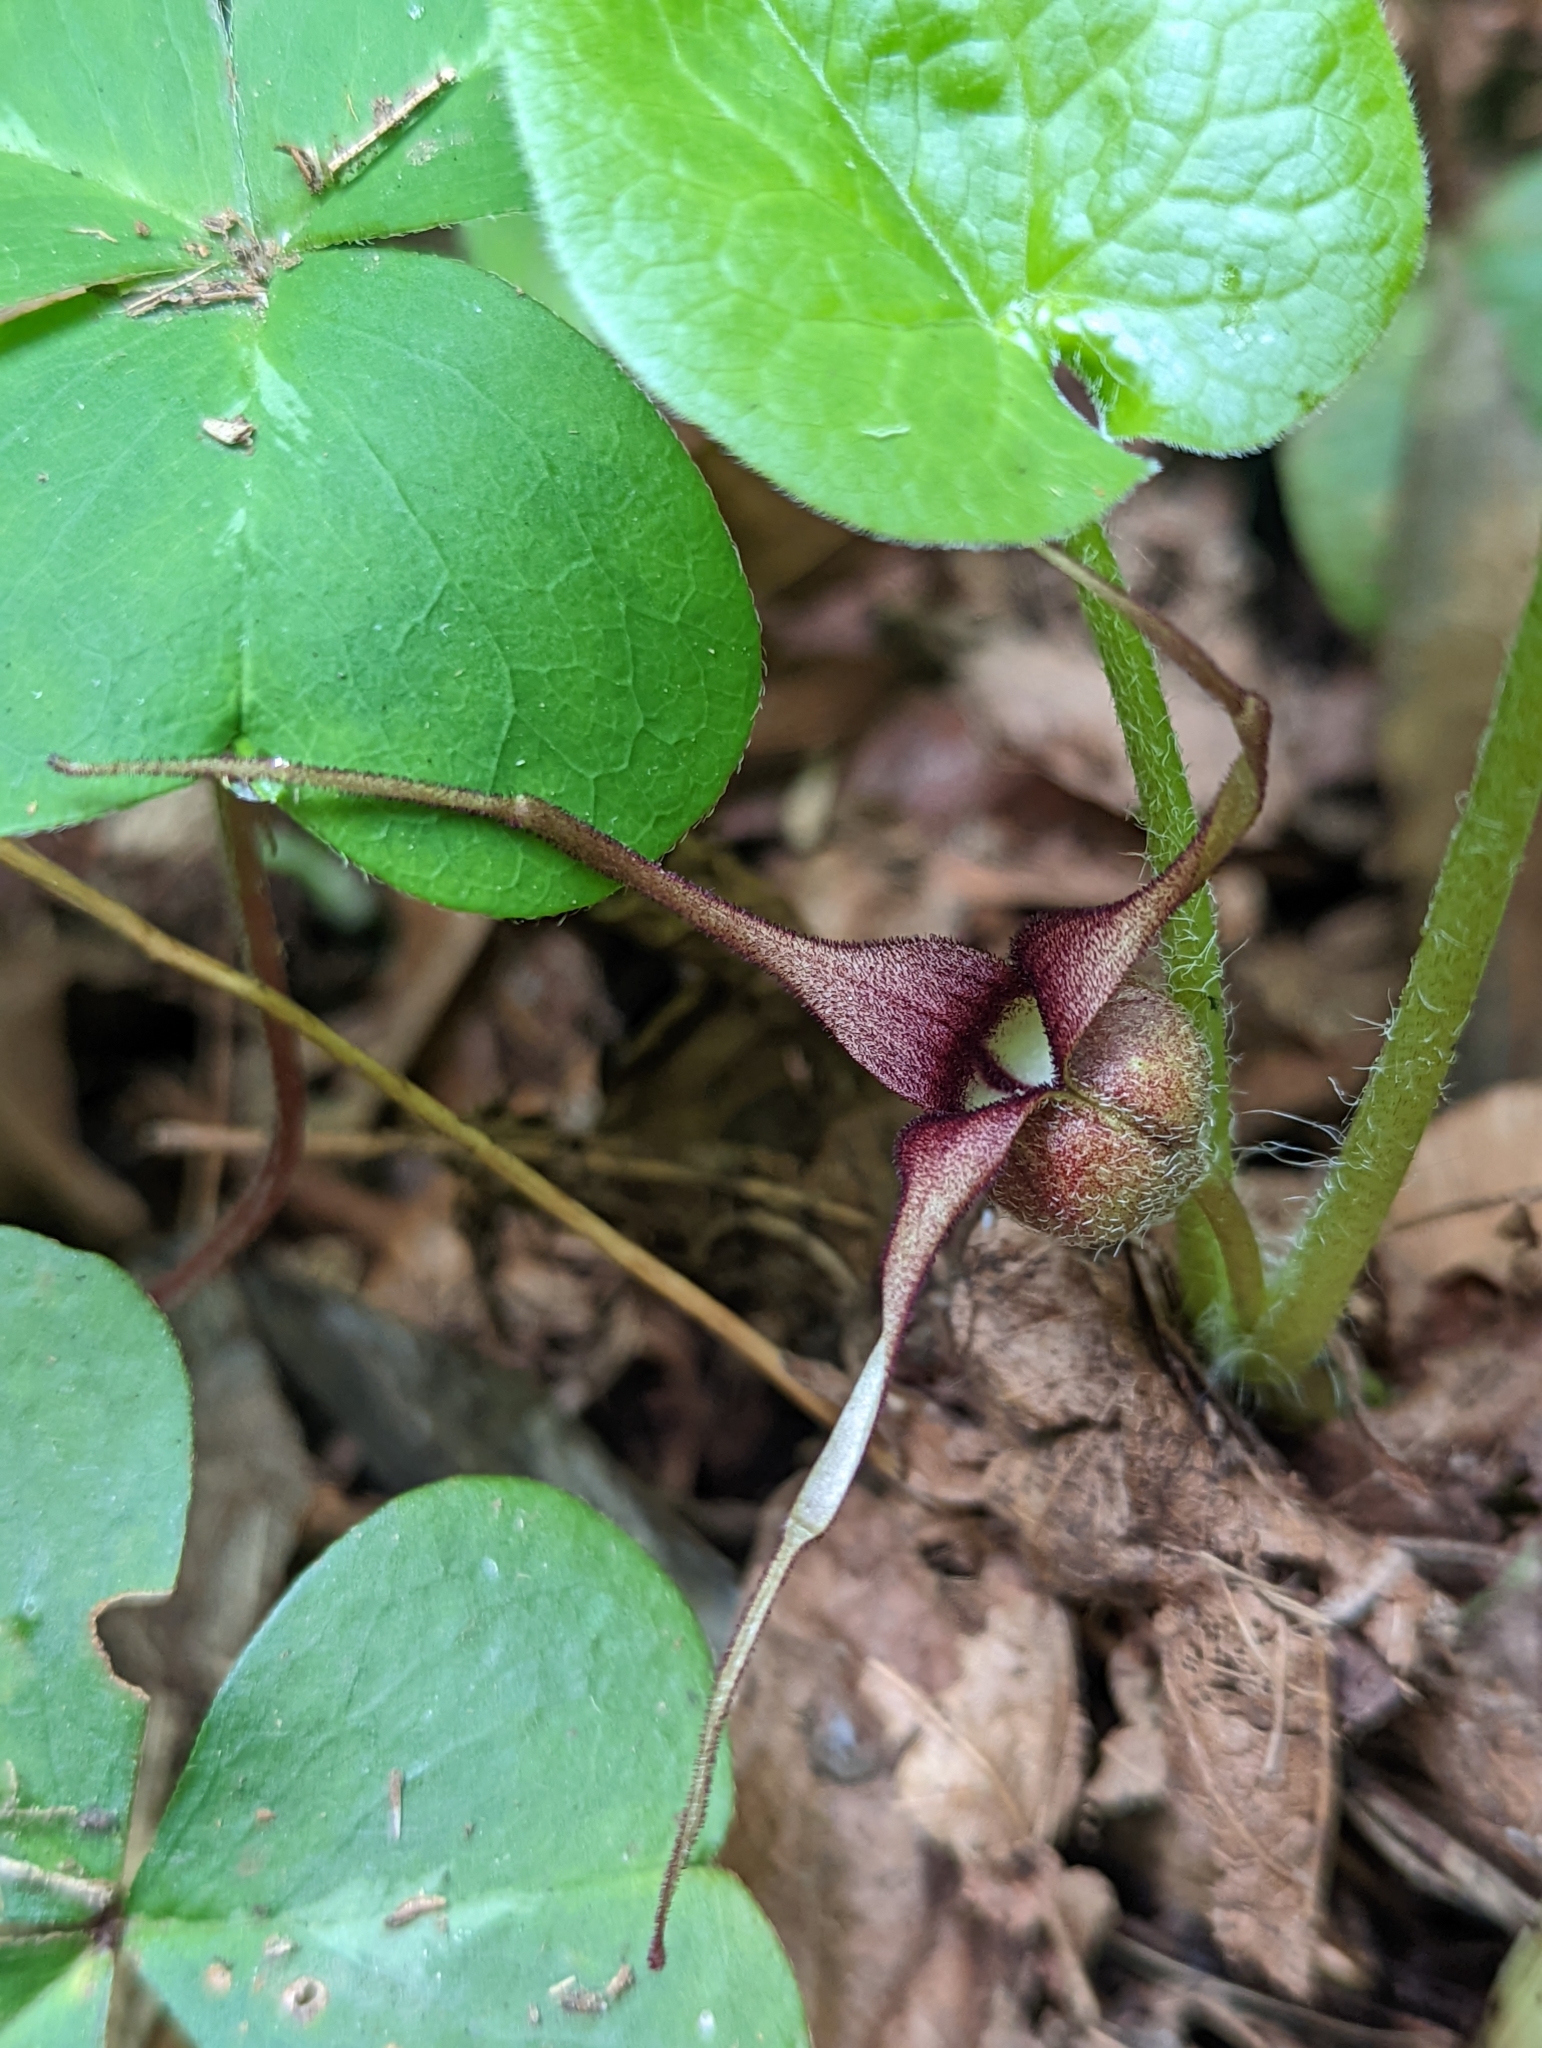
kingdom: Plantae
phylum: Tracheophyta
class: Magnoliopsida
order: Piperales
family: Aristolochiaceae
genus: Asarum
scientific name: Asarum caudatum
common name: Wild ginger
